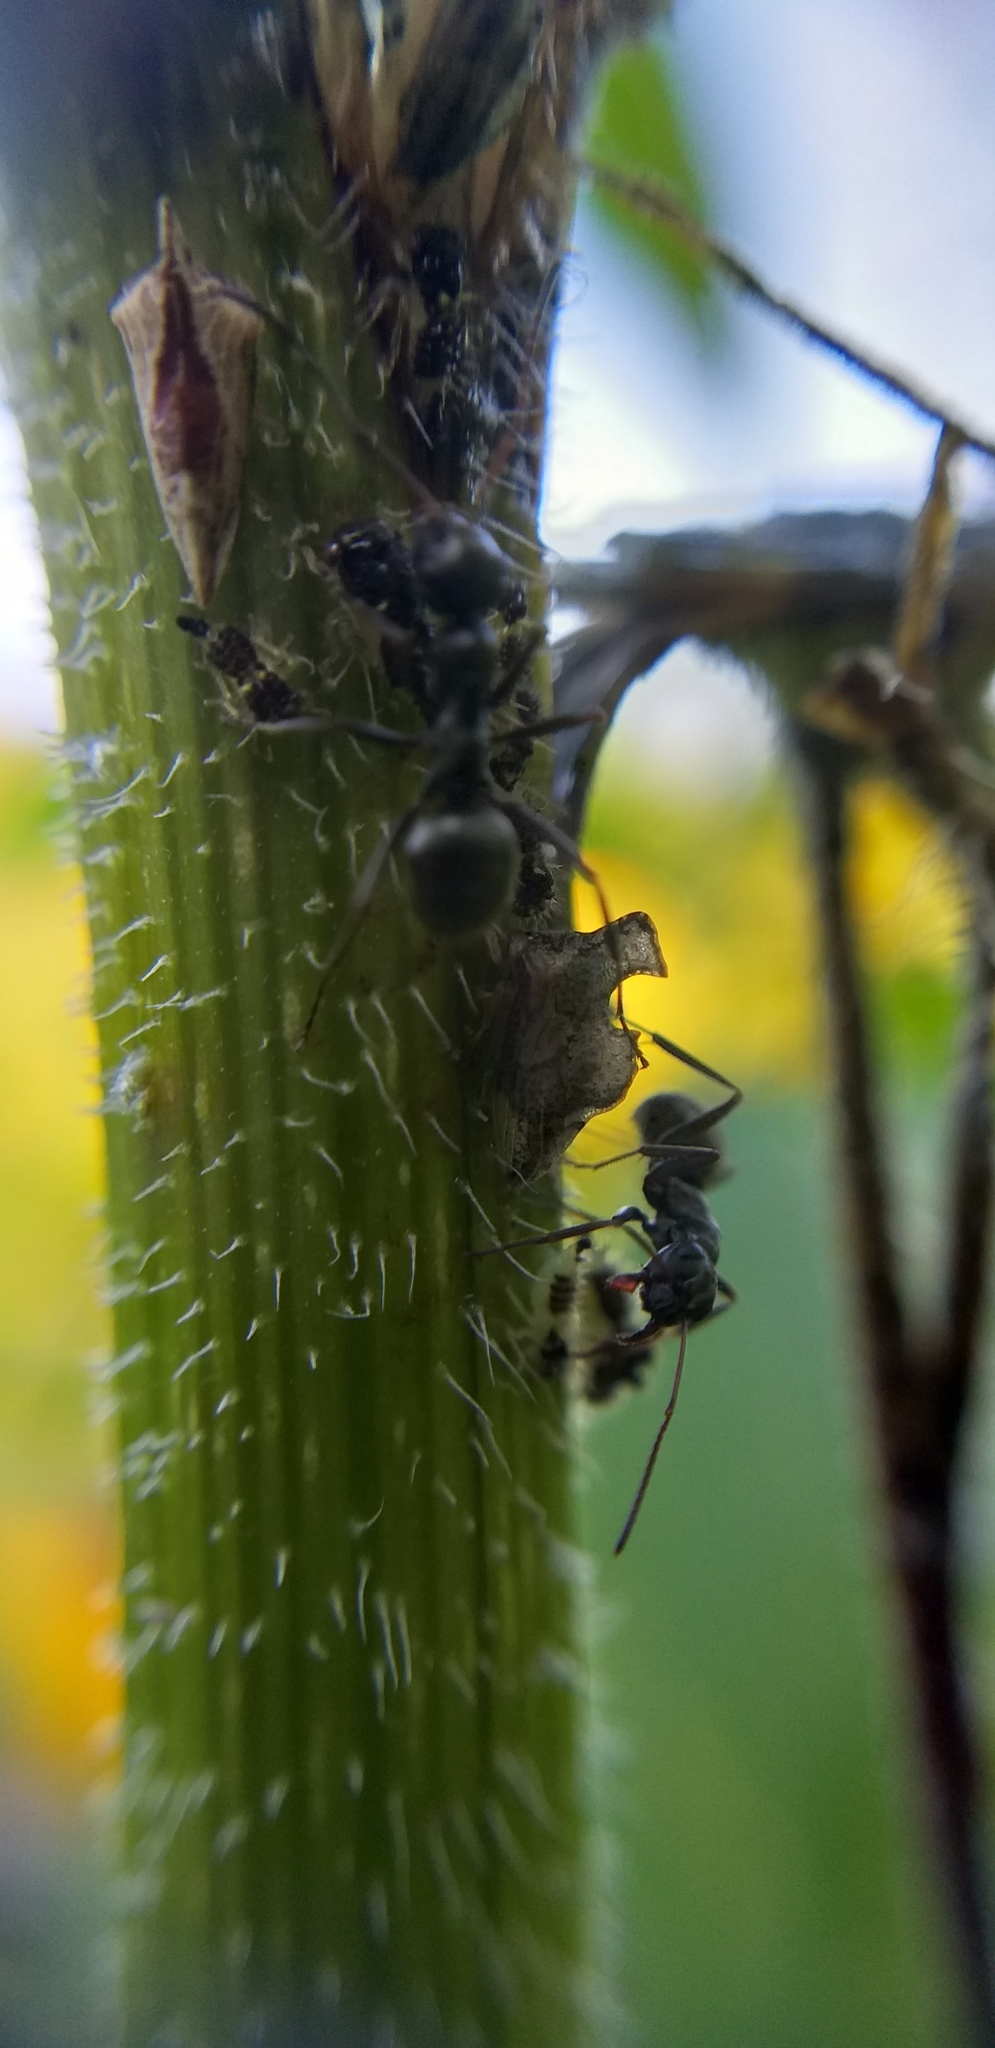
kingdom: Animalia
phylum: Arthropoda
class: Insecta
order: Hemiptera
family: Membracidae
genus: Entylia
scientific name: Entylia carinata
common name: Keeled treehopper
